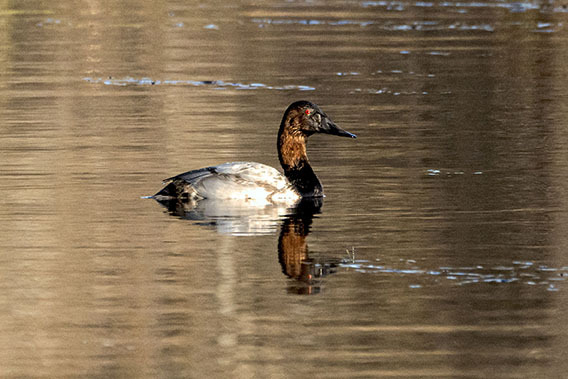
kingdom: Animalia
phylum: Chordata
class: Aves
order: Anseriformes
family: Anatidae
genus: Aythya
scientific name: Aythya valisineria
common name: Canvasback
